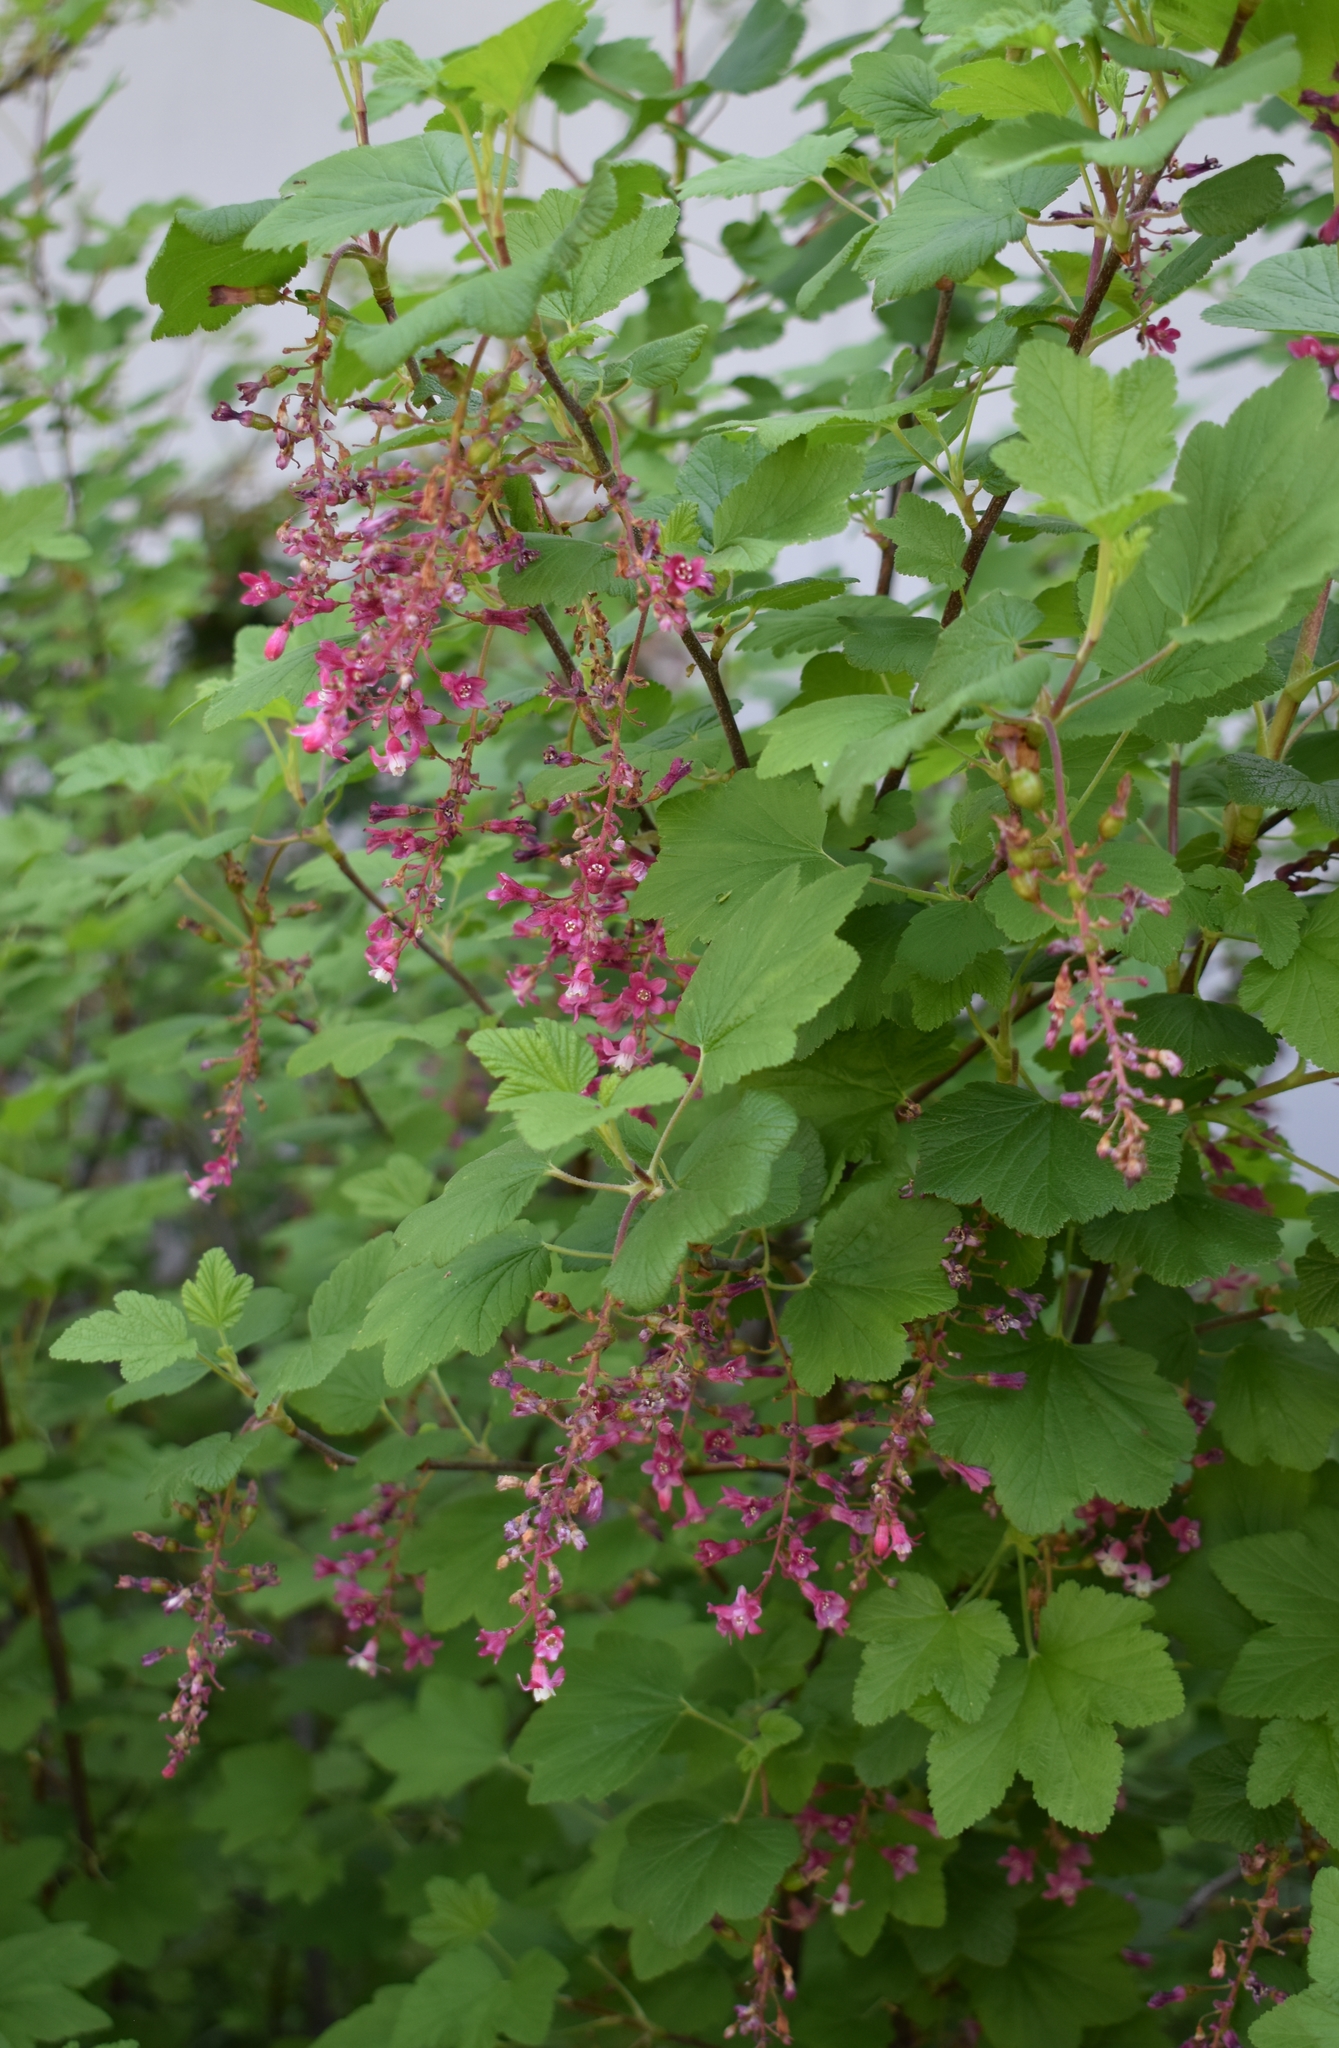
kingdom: Plantae
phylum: Tracheophyta
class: Magnoliopsida
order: Saxifragales
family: Grossulariaceae
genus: Ribes
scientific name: Ribes sanguineum
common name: Flowering currant
